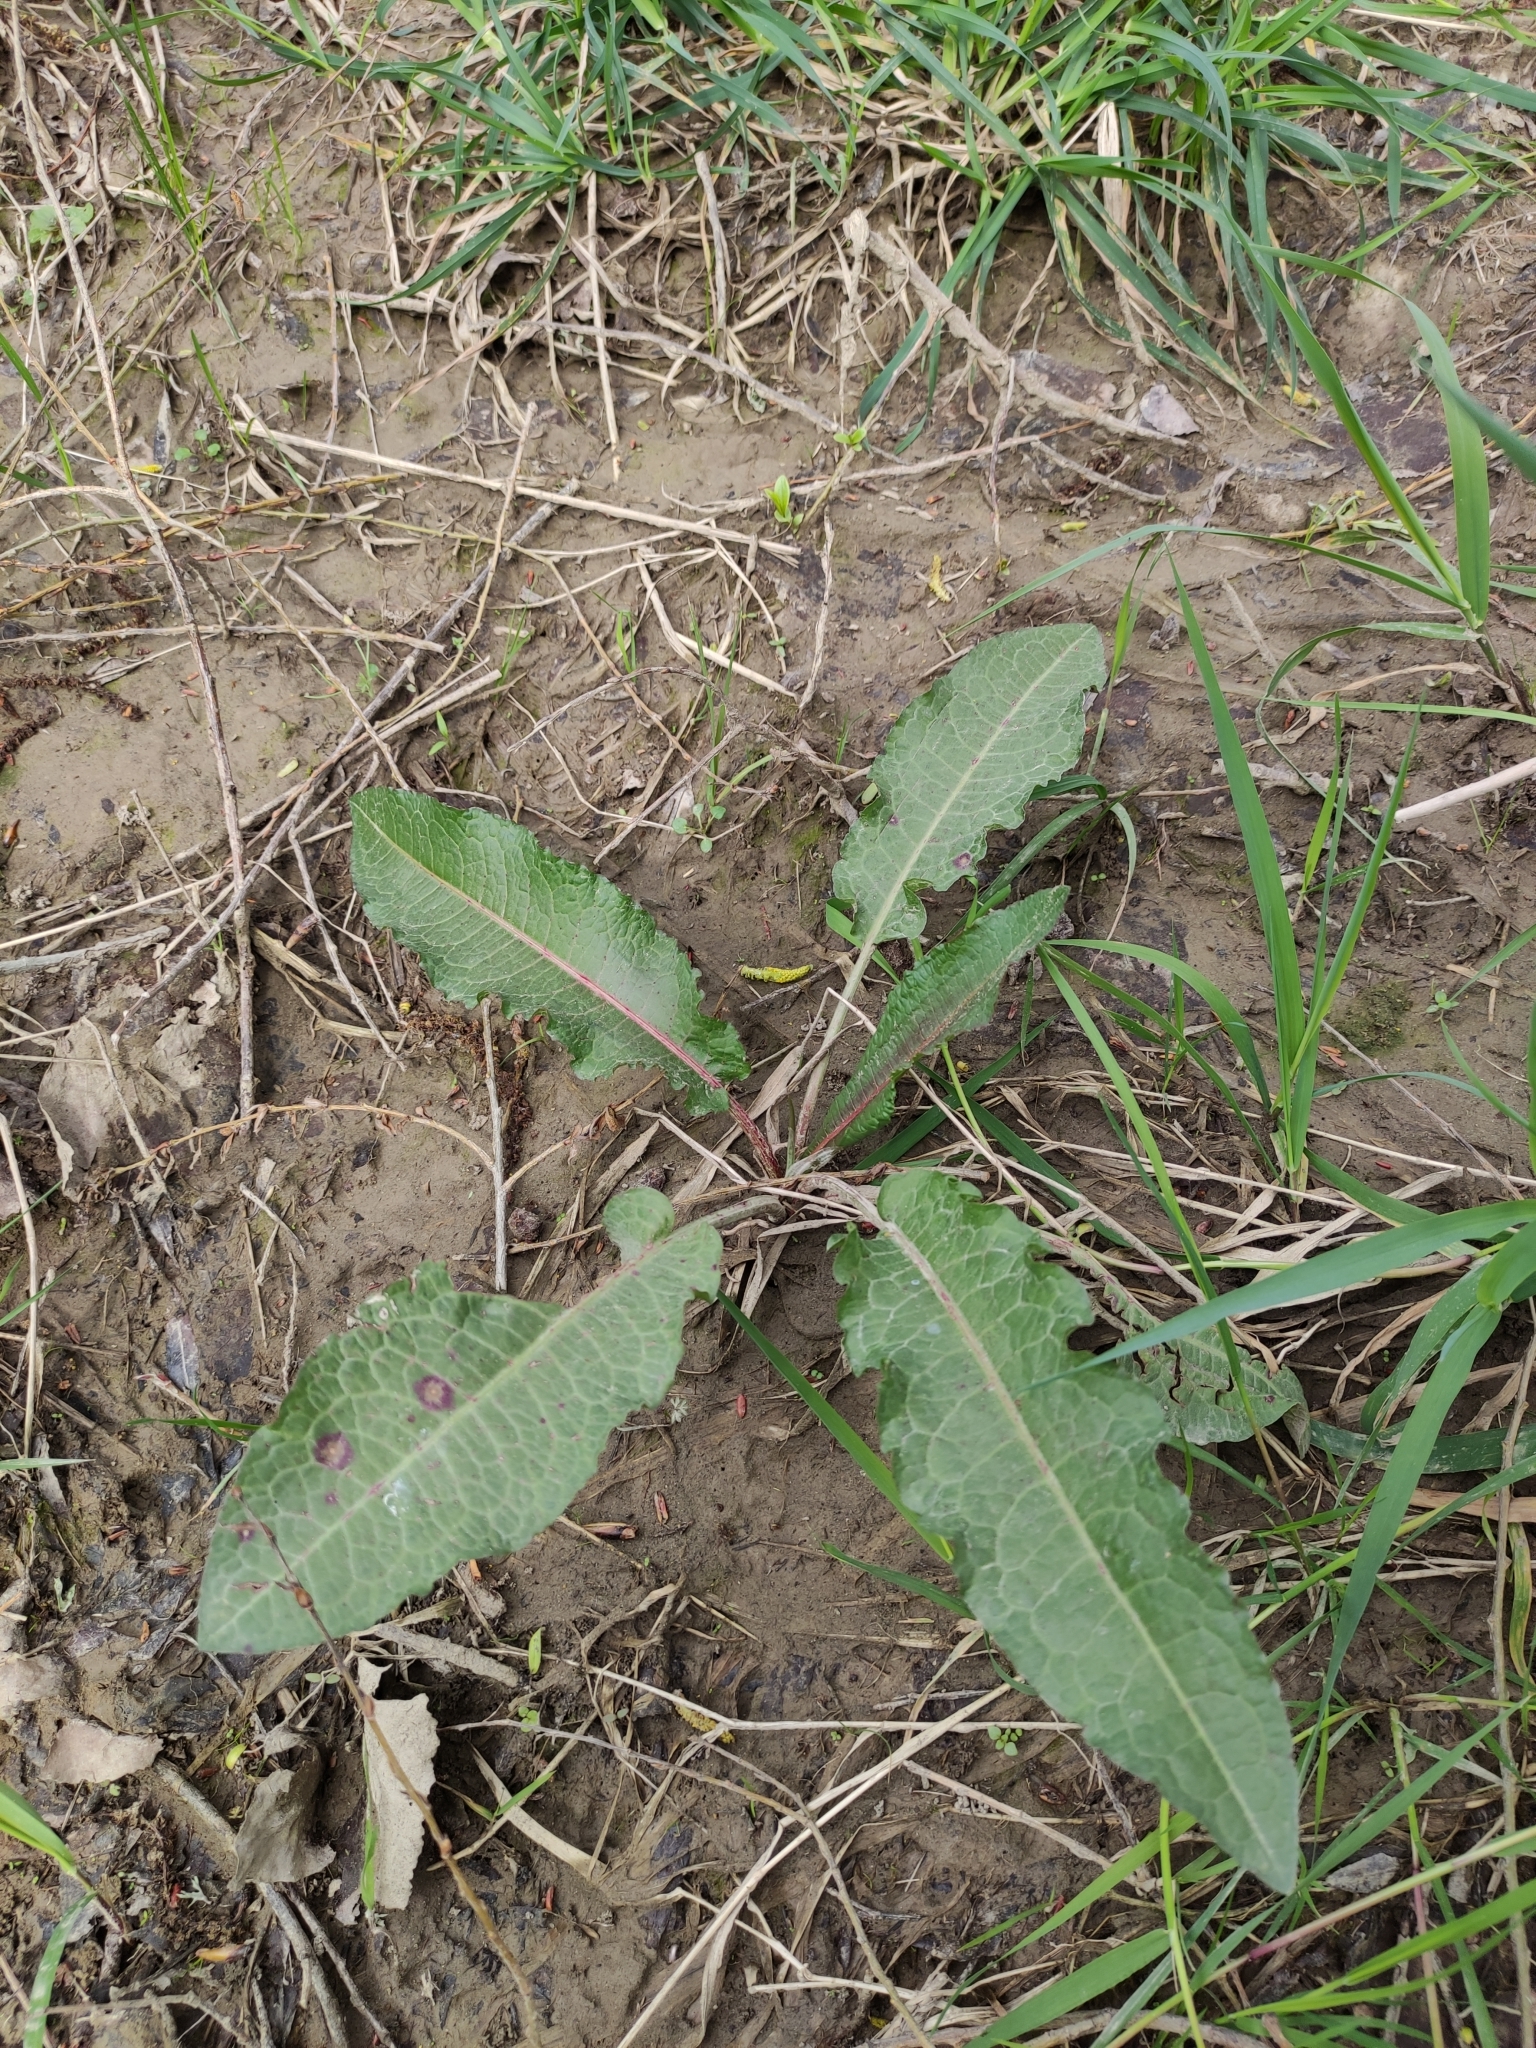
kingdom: Plantae
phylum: Tracheophyta
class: Magnoliopsida
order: Caryophyllales
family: Polygonaceae
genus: Rumex
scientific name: Rumex obtusifolius
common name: Bitter dock
